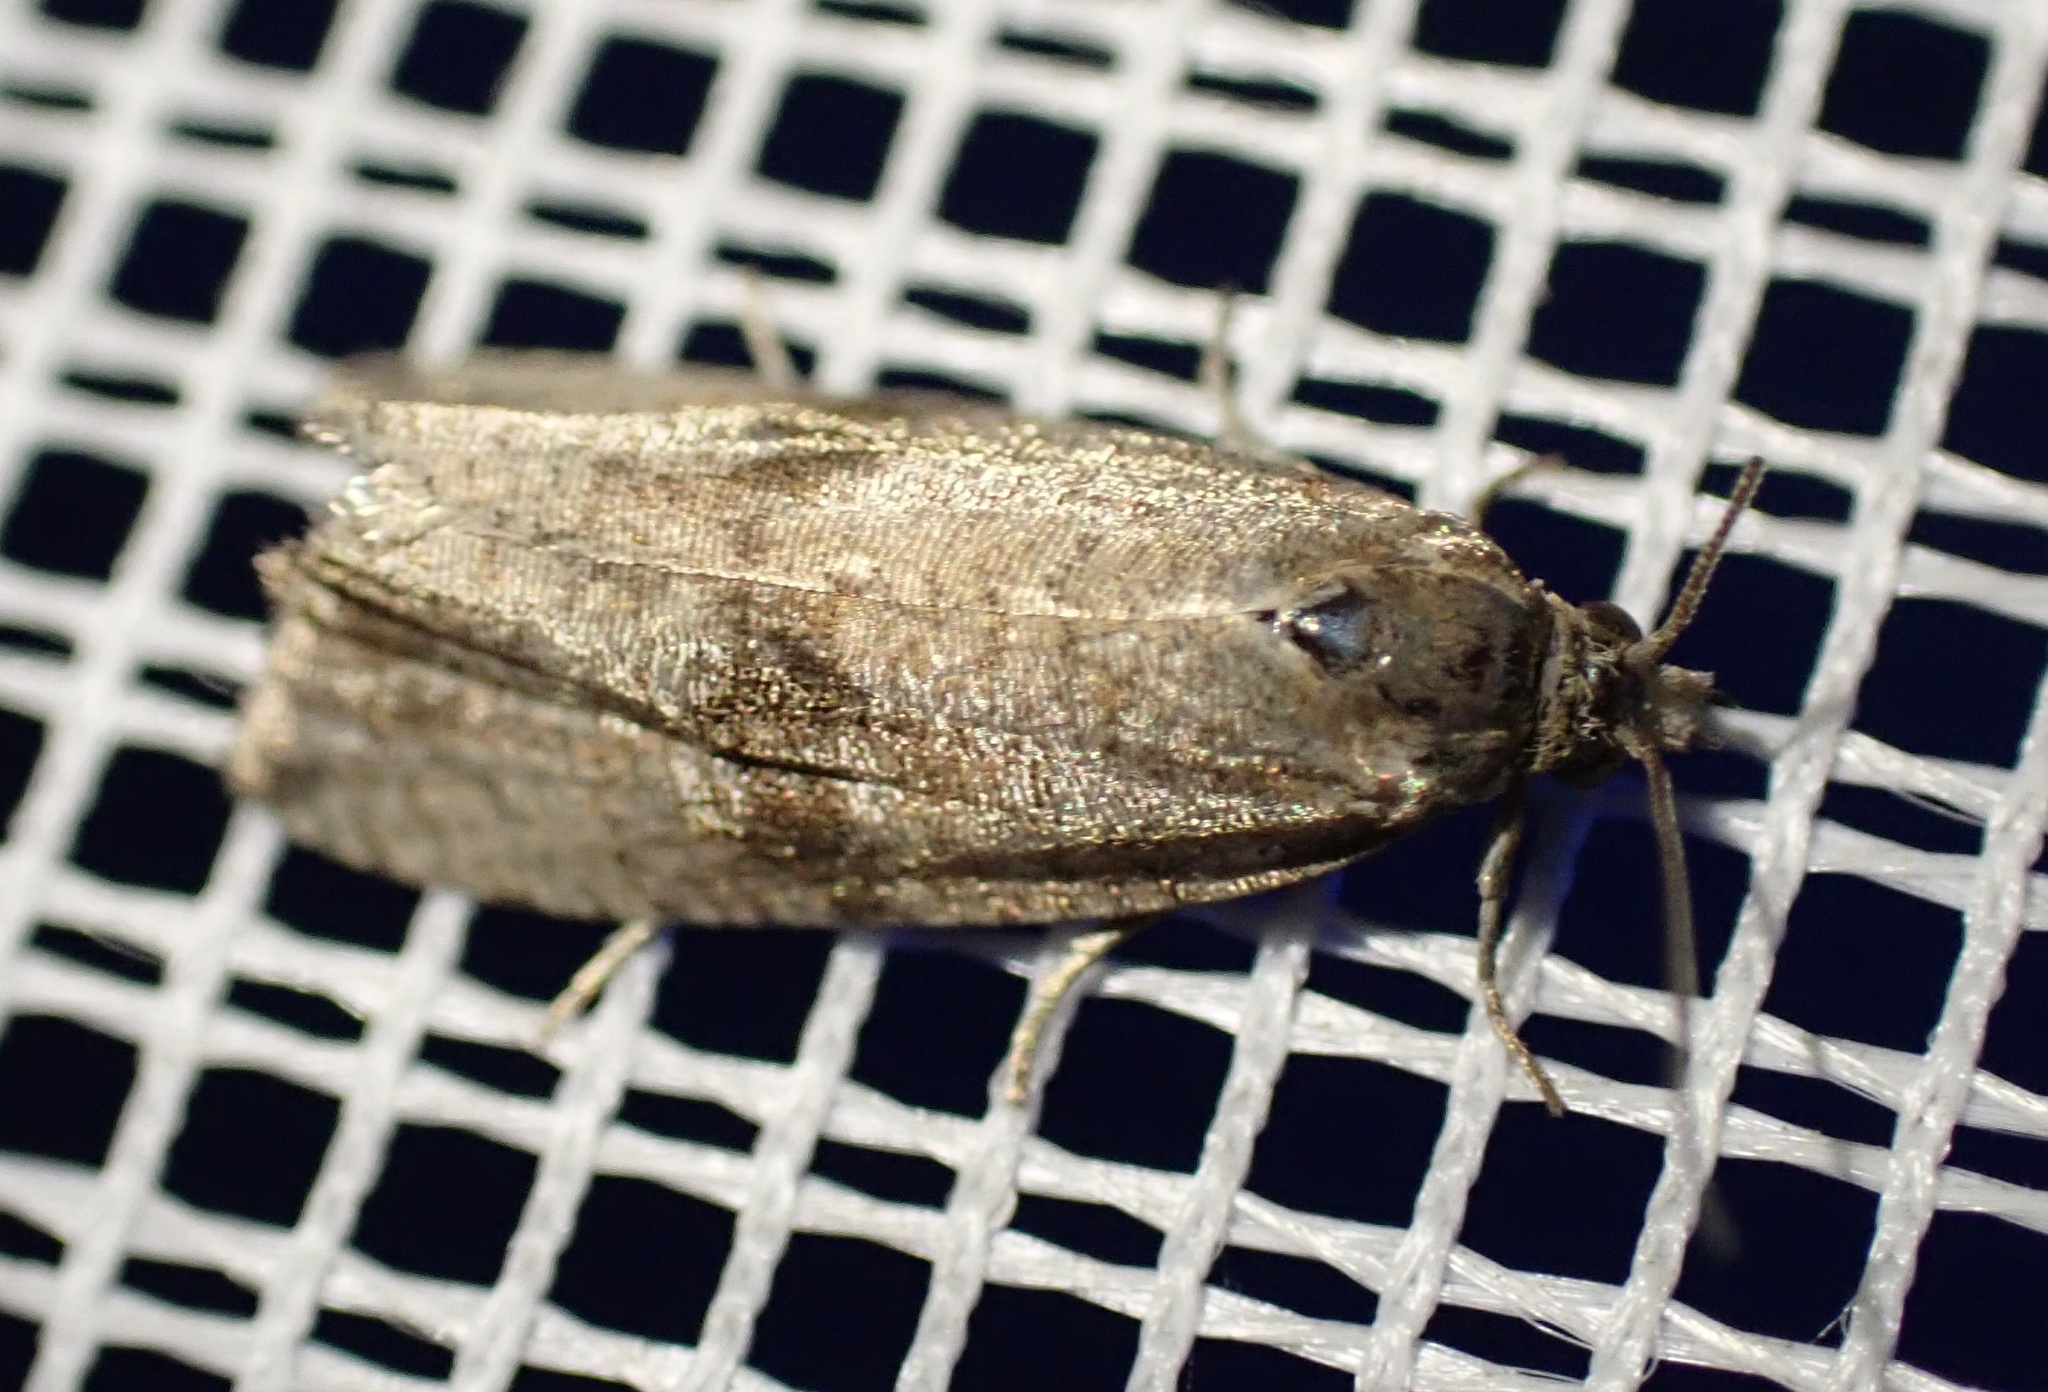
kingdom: Animalia
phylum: Arthropoda
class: Insecta
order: Lepidoptera
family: Tortricidae
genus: Celypha
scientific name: Celypha striana
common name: Barred marble
